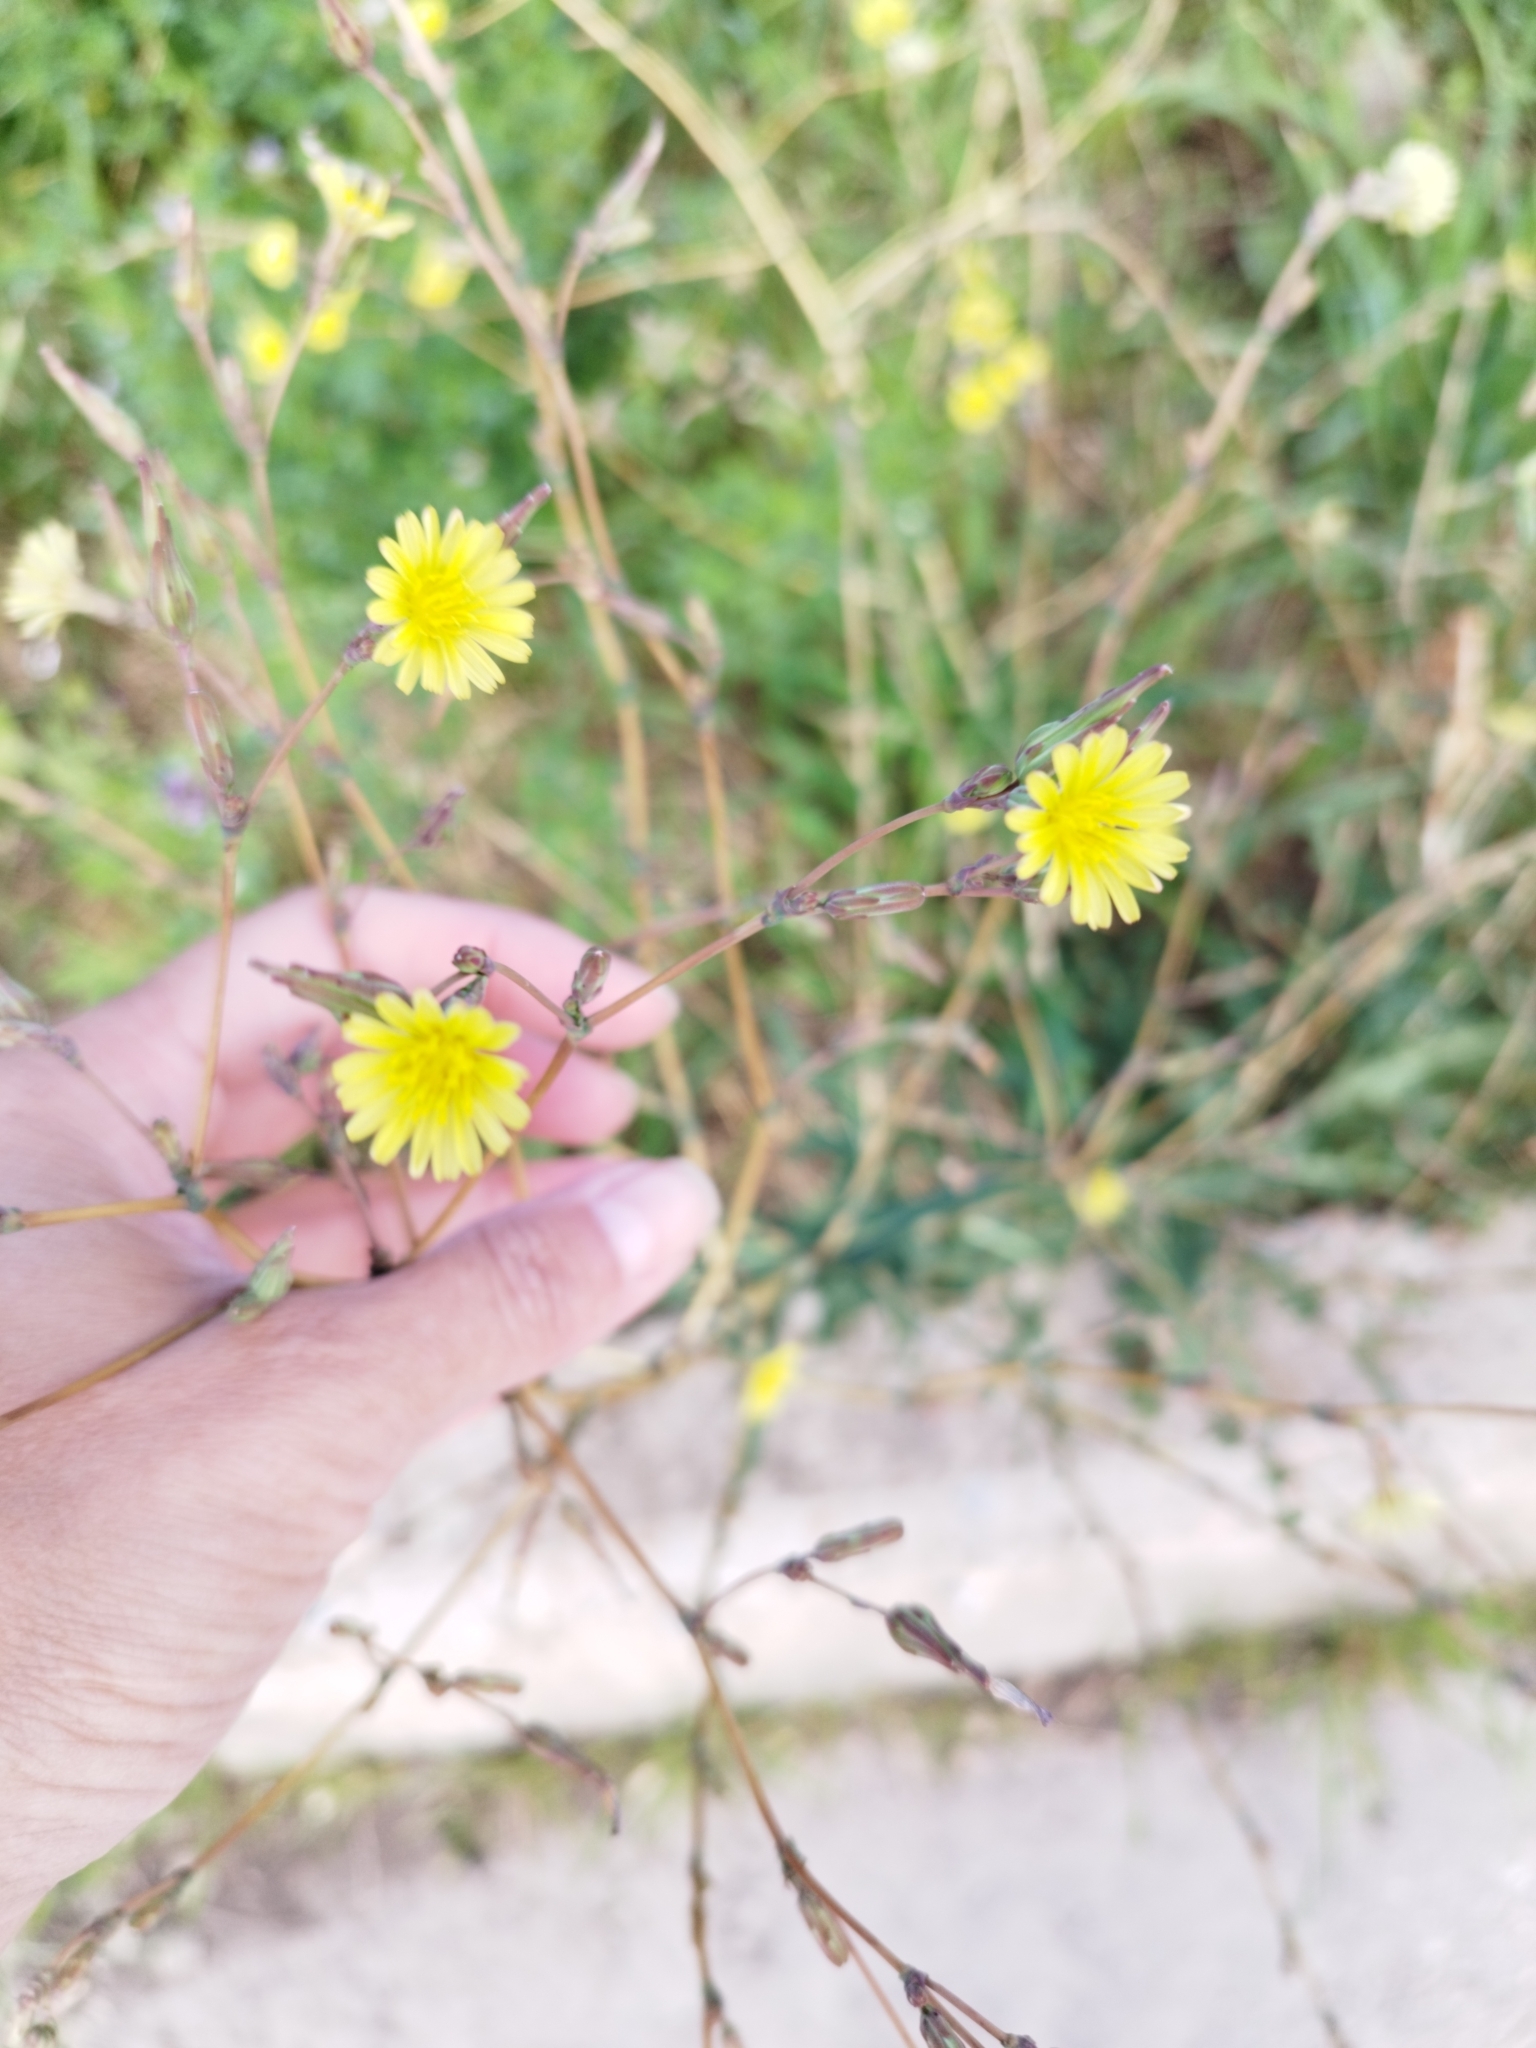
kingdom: Plantae
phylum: Tracheophyta
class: Magnoliopsida
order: Asterales
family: Asteraceae
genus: Lactuca
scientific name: Lactuca serriola
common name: Prickly lettuce
